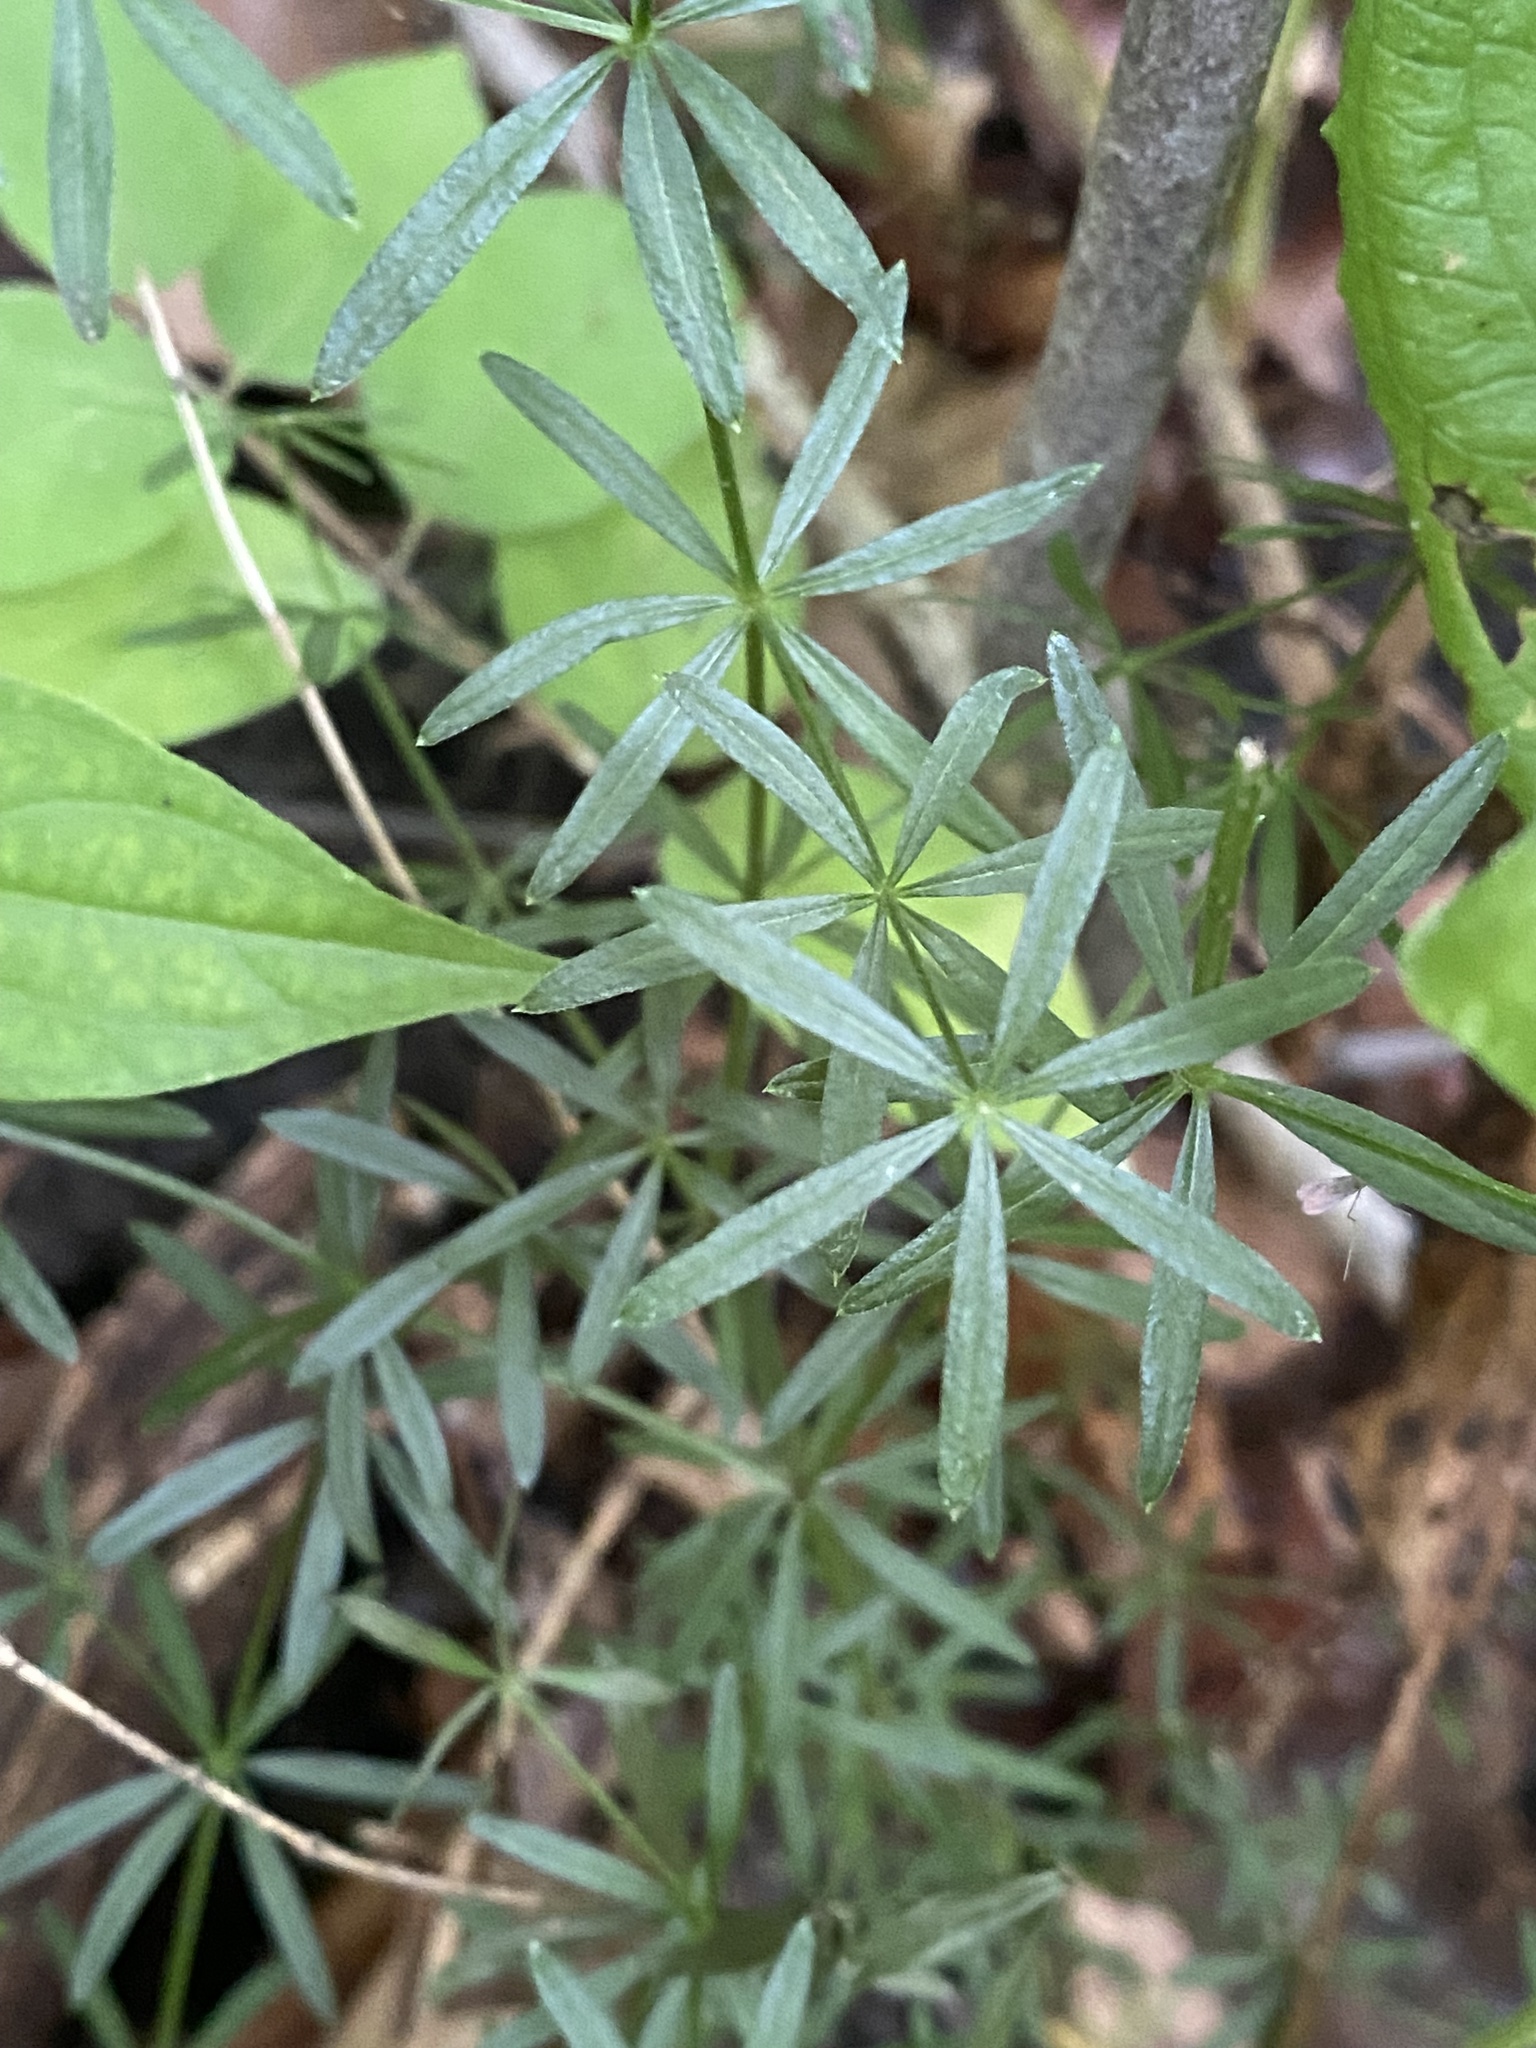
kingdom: Plantae
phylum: Tracheophyta
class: Magnoliopsida
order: Gentianales
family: Rubiaceae
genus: Galium
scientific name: Galium concinnum
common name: Shining bedstraw
